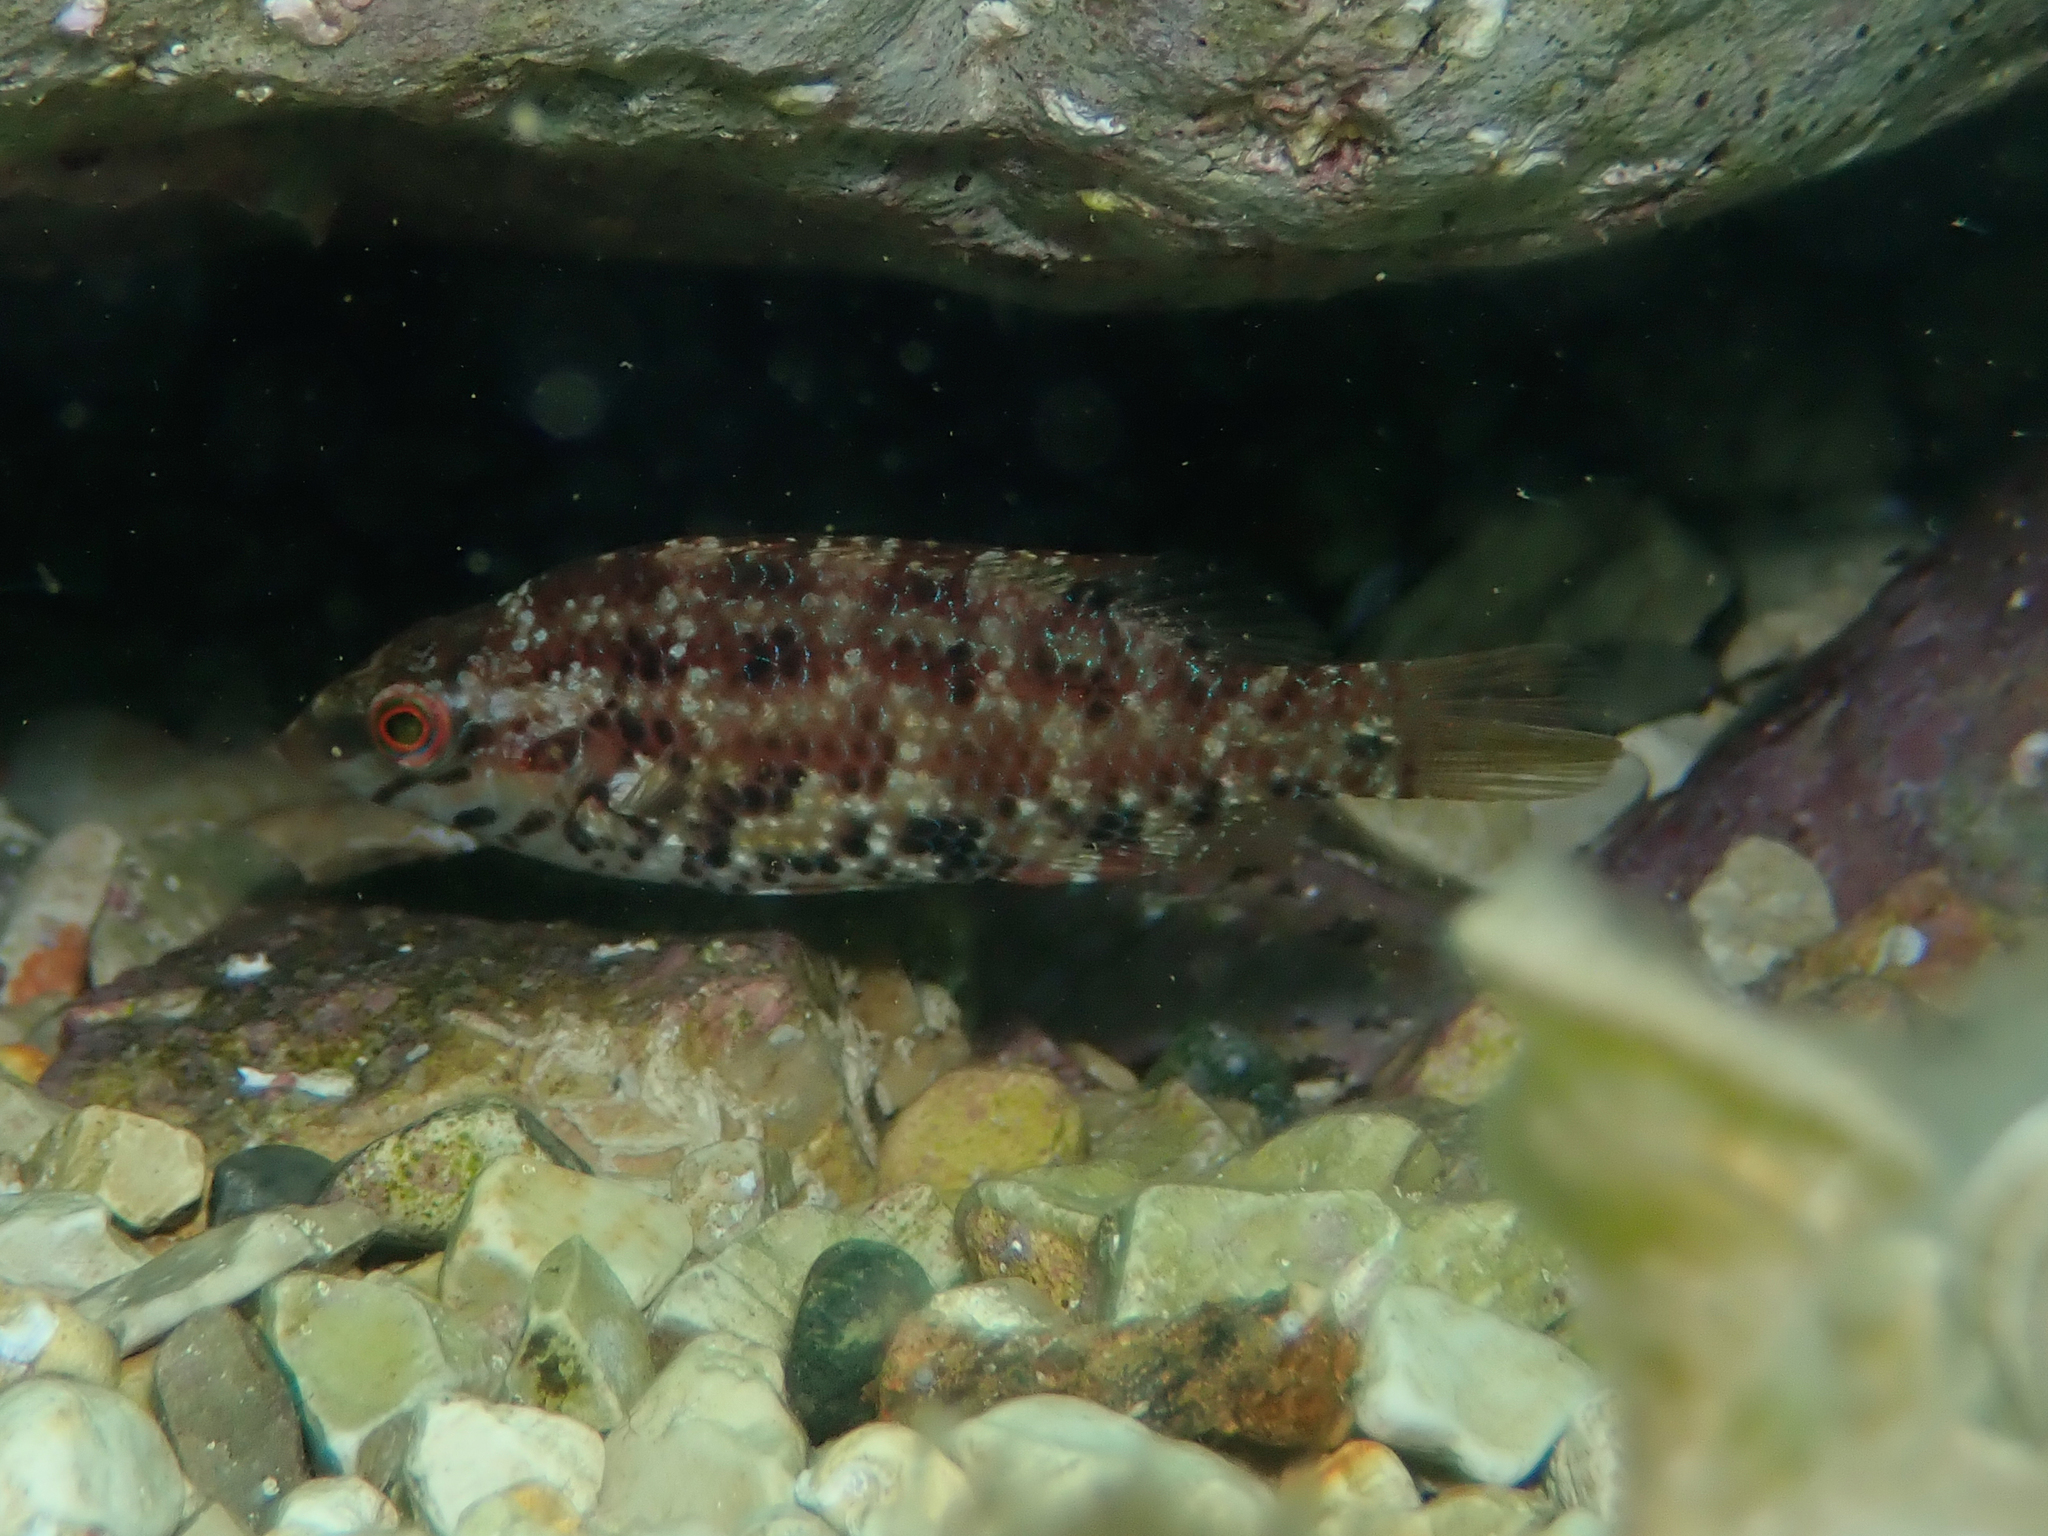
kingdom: Animalia
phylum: Chordata
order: Perciformes
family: Labridae
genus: Symphodus
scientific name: Symphodus roissali
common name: Five-spotted wrasse
